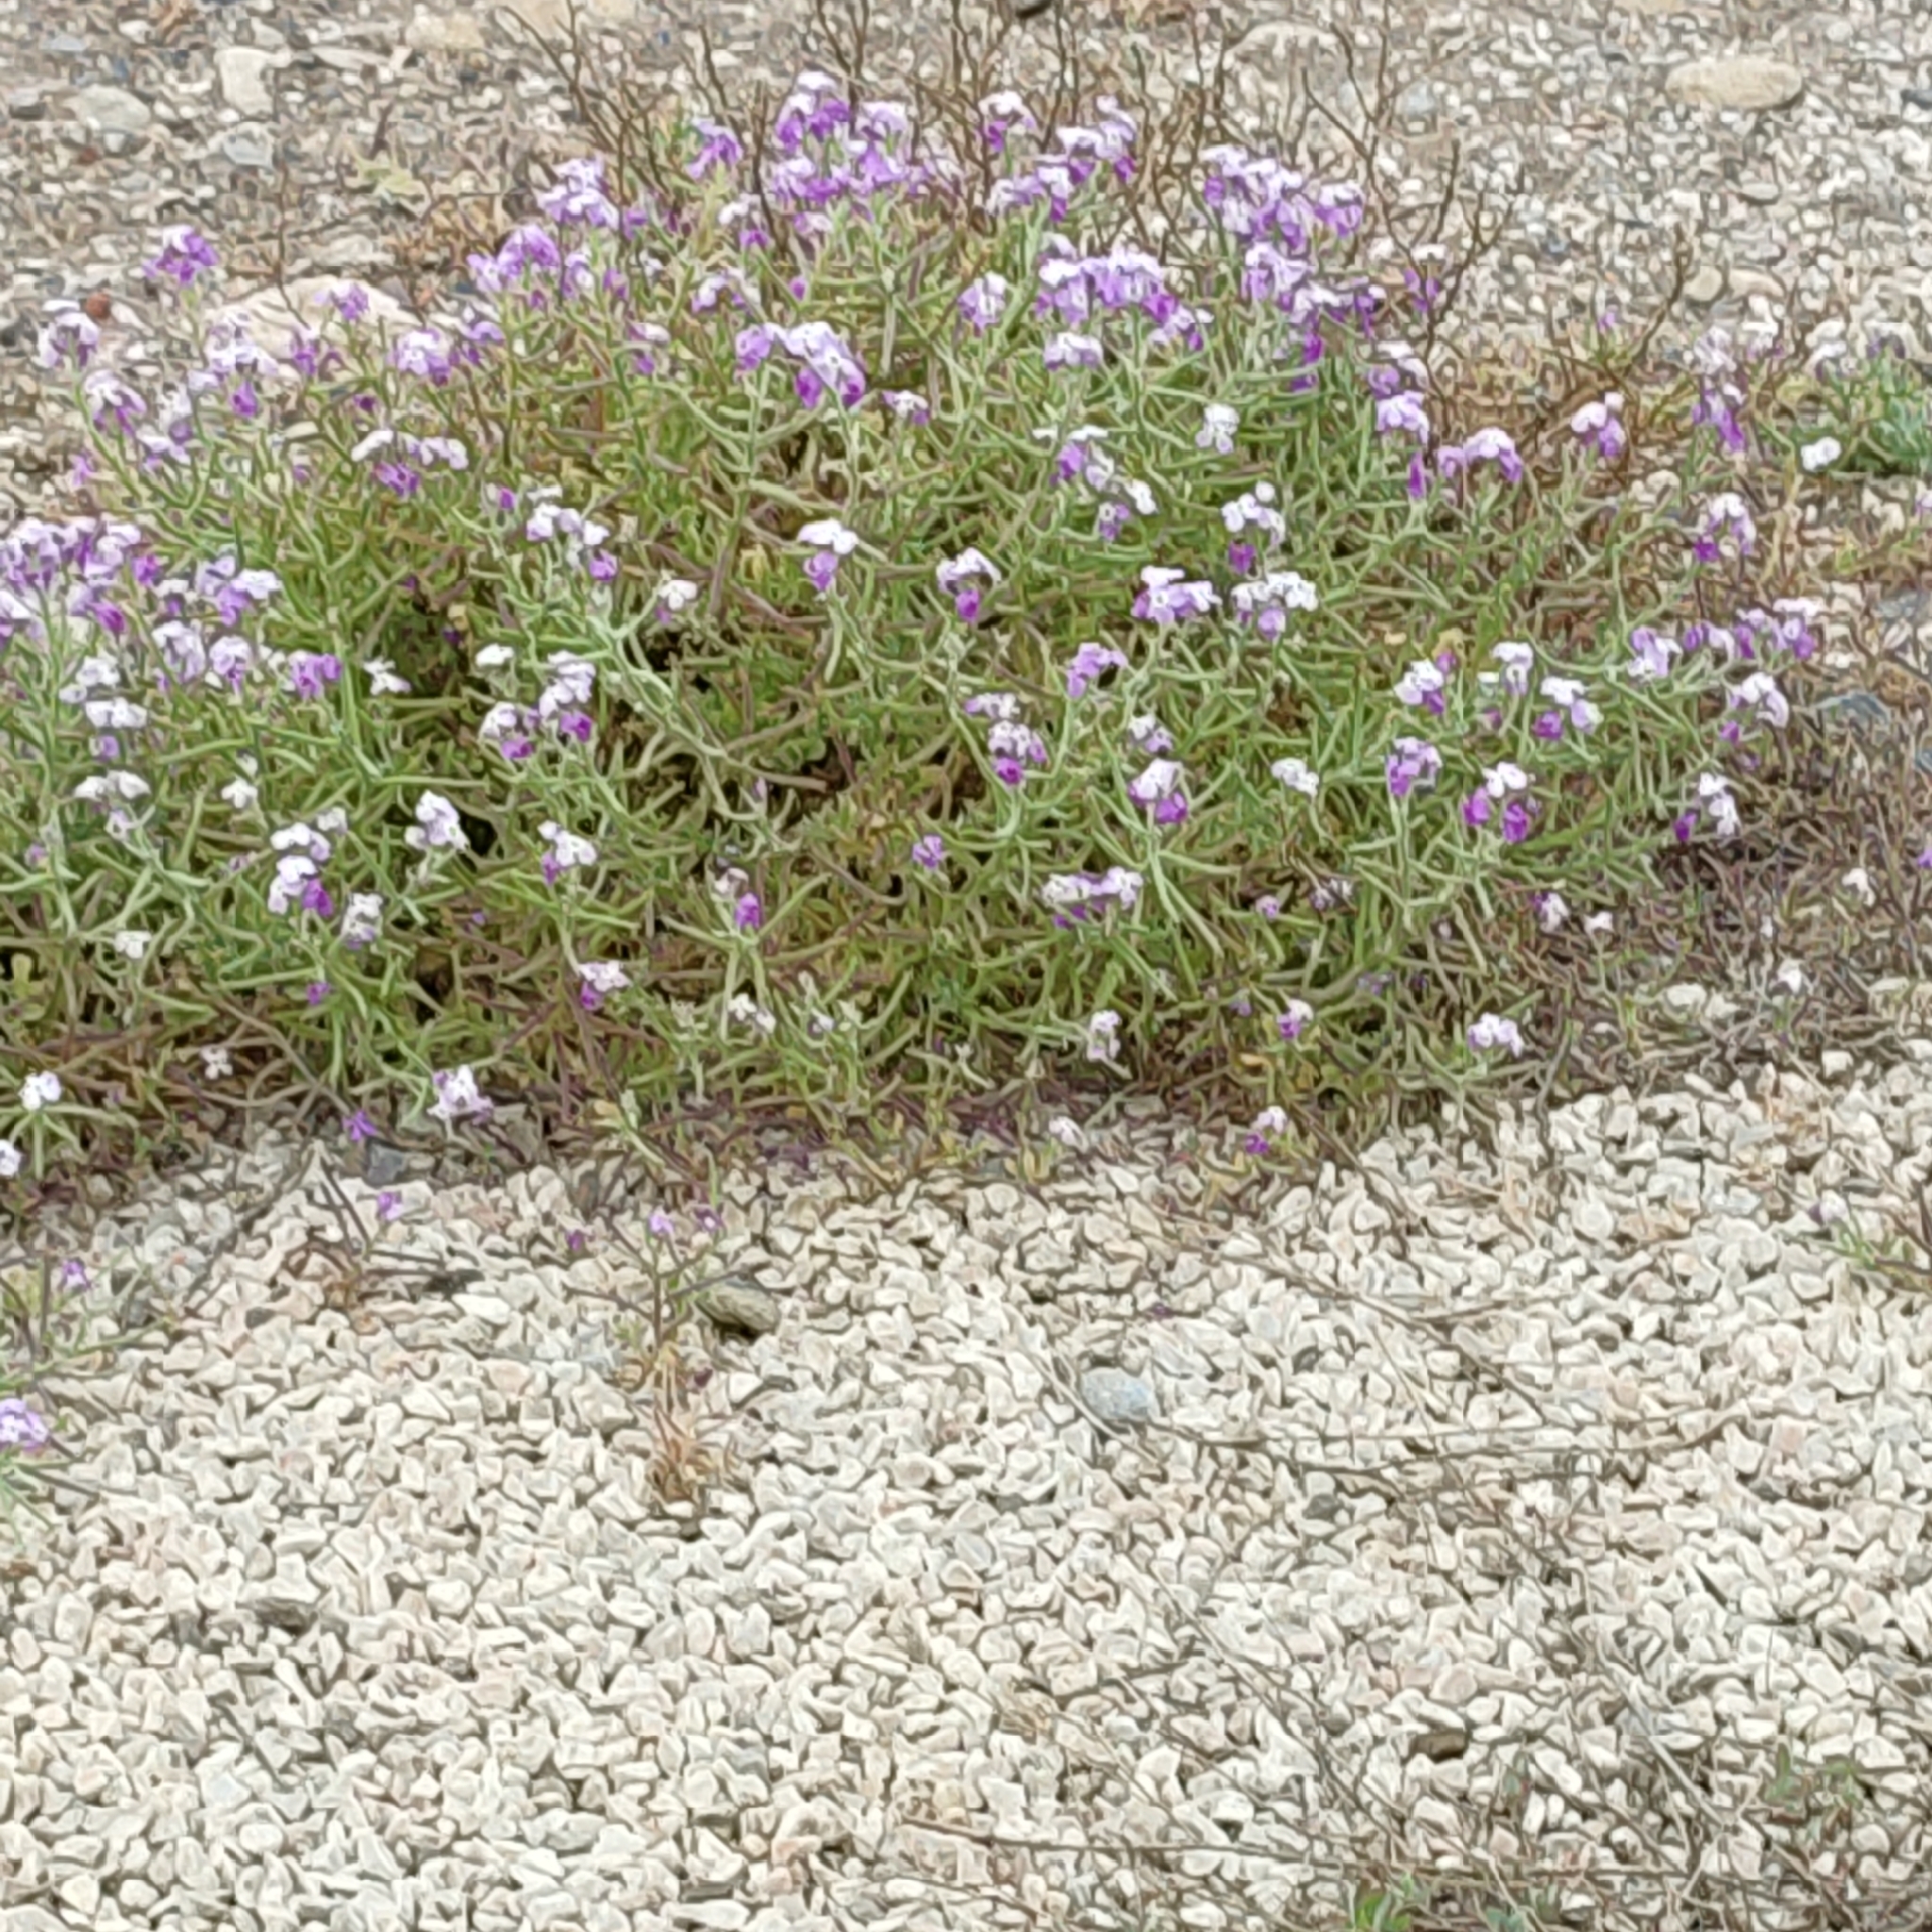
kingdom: Plantae
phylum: Tracheophyta
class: Magnoliopsida
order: Brassicales
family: Brassicaceae
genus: Matthiola
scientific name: Matthiola tricuspidata
